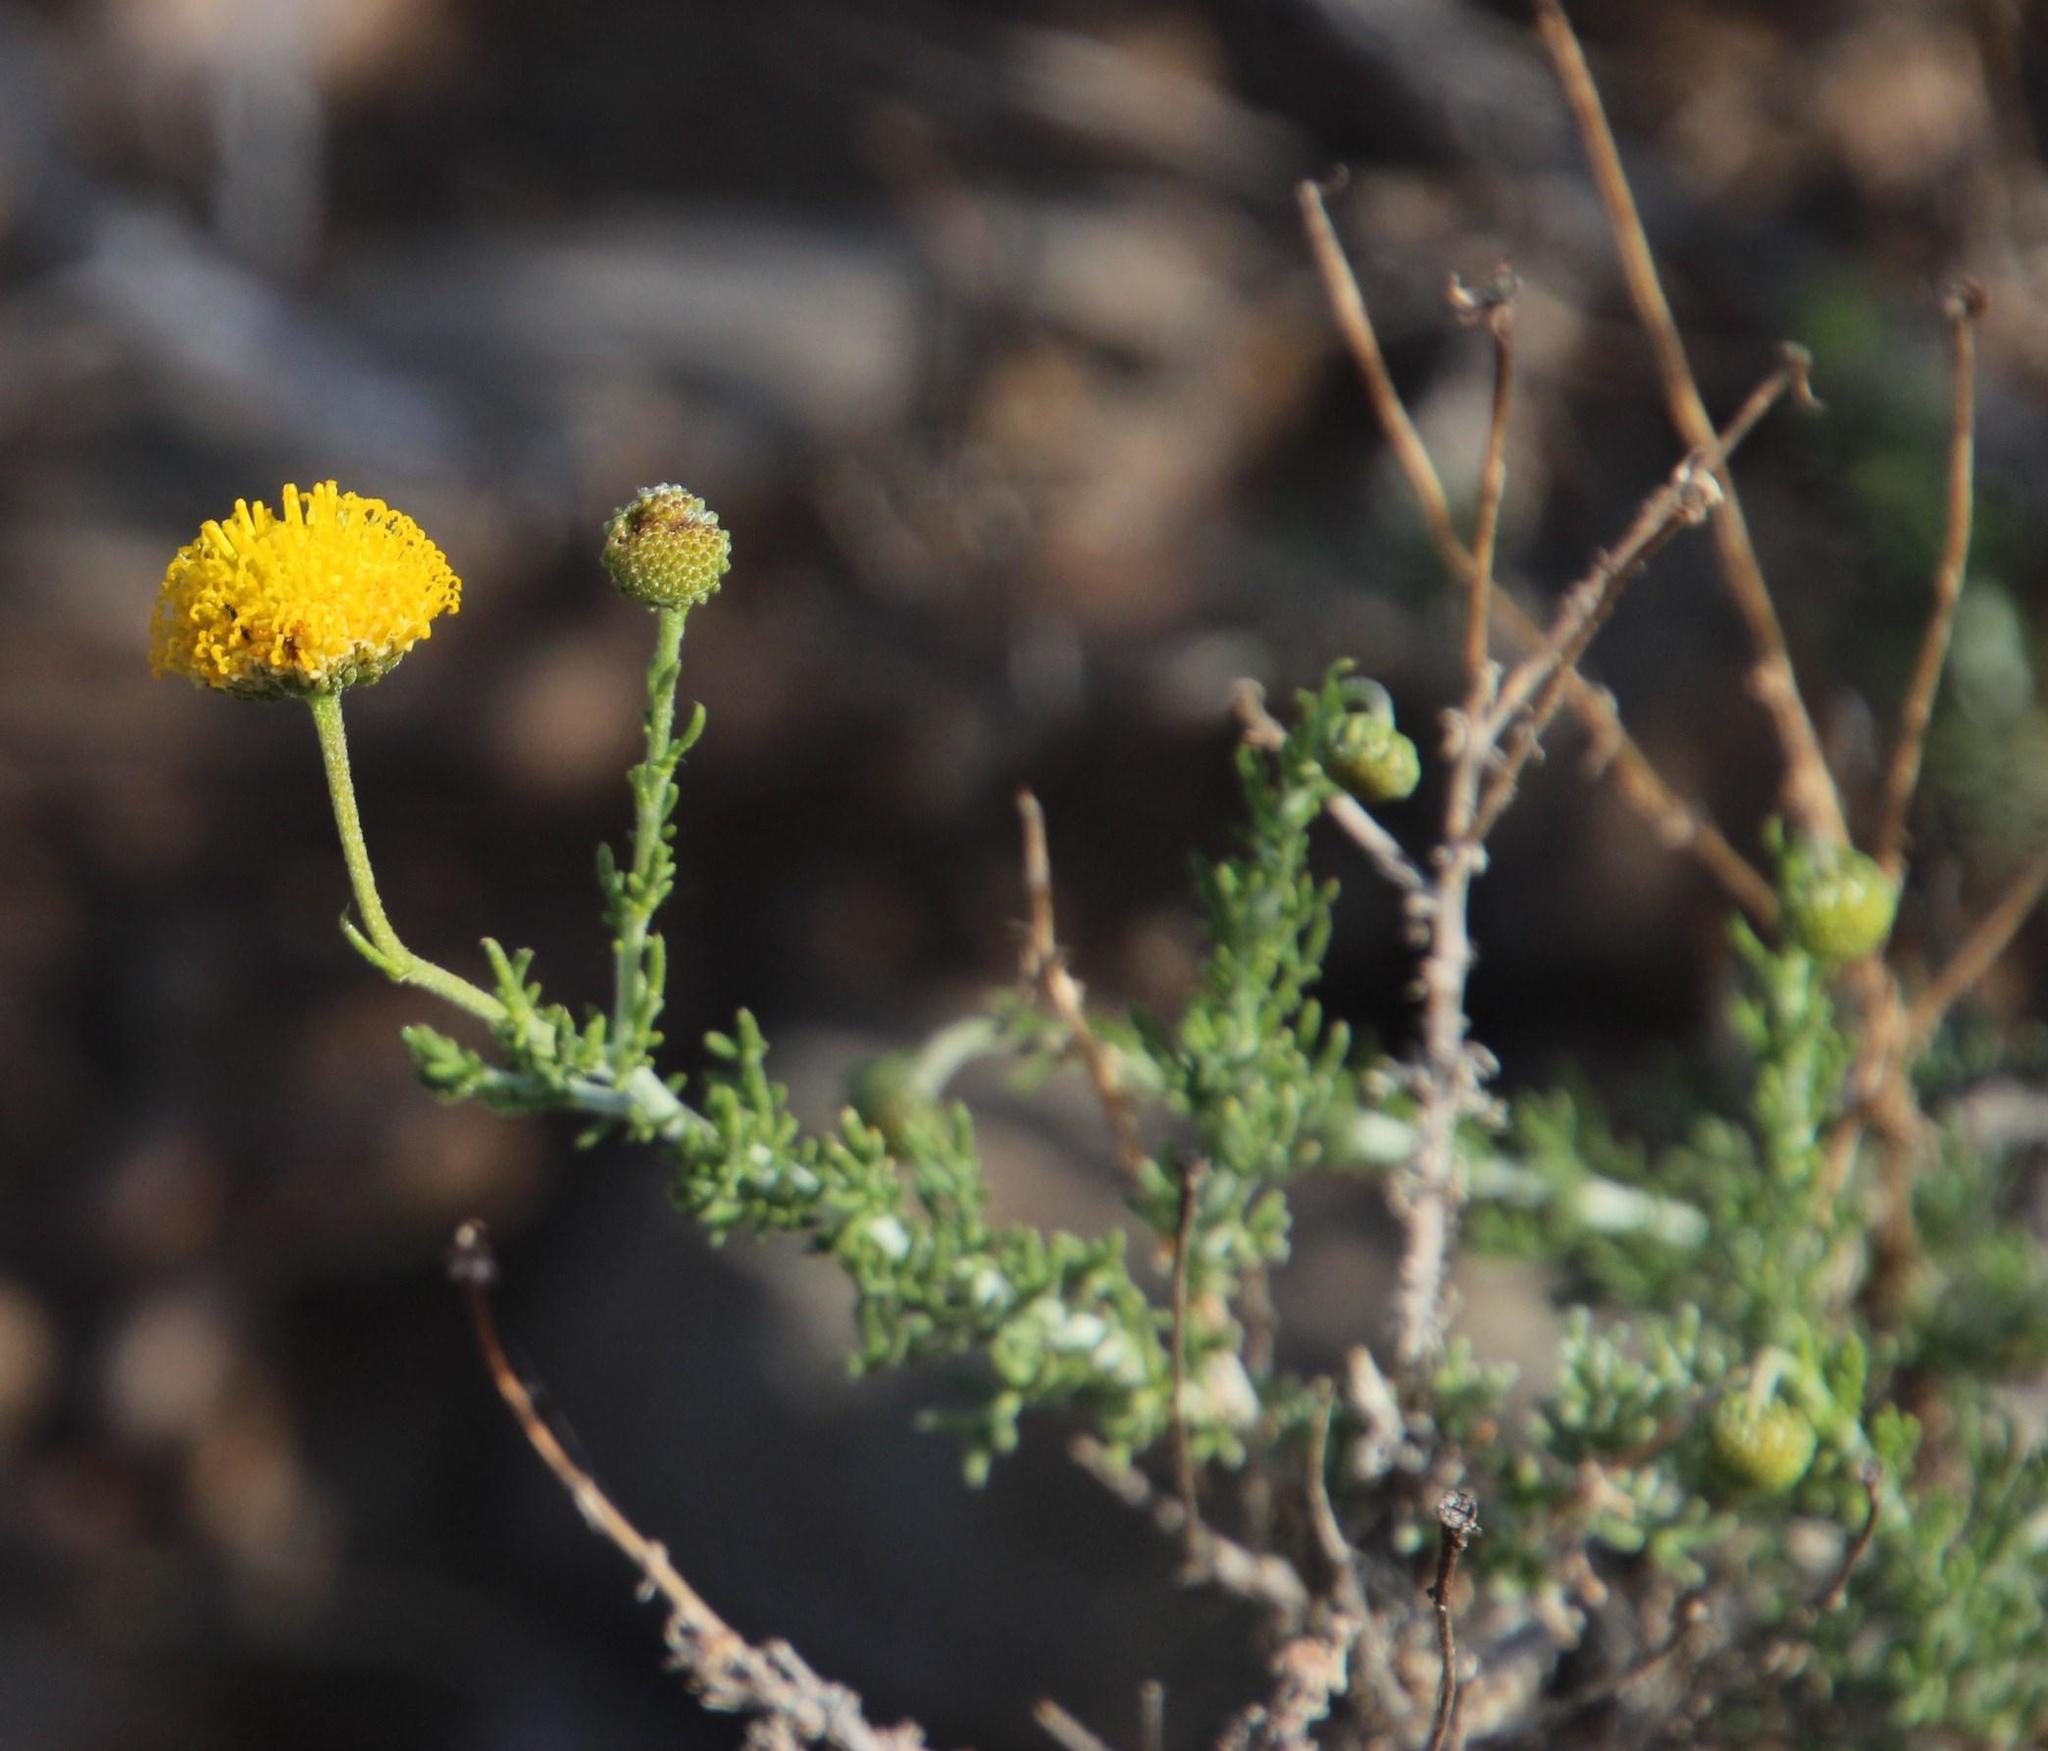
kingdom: Plantae
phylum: Tracheophyta
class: Magnoliopsida
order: Asterales
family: Asteraceae
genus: Pentzia
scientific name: Pentzia incana
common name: African sheepbush
